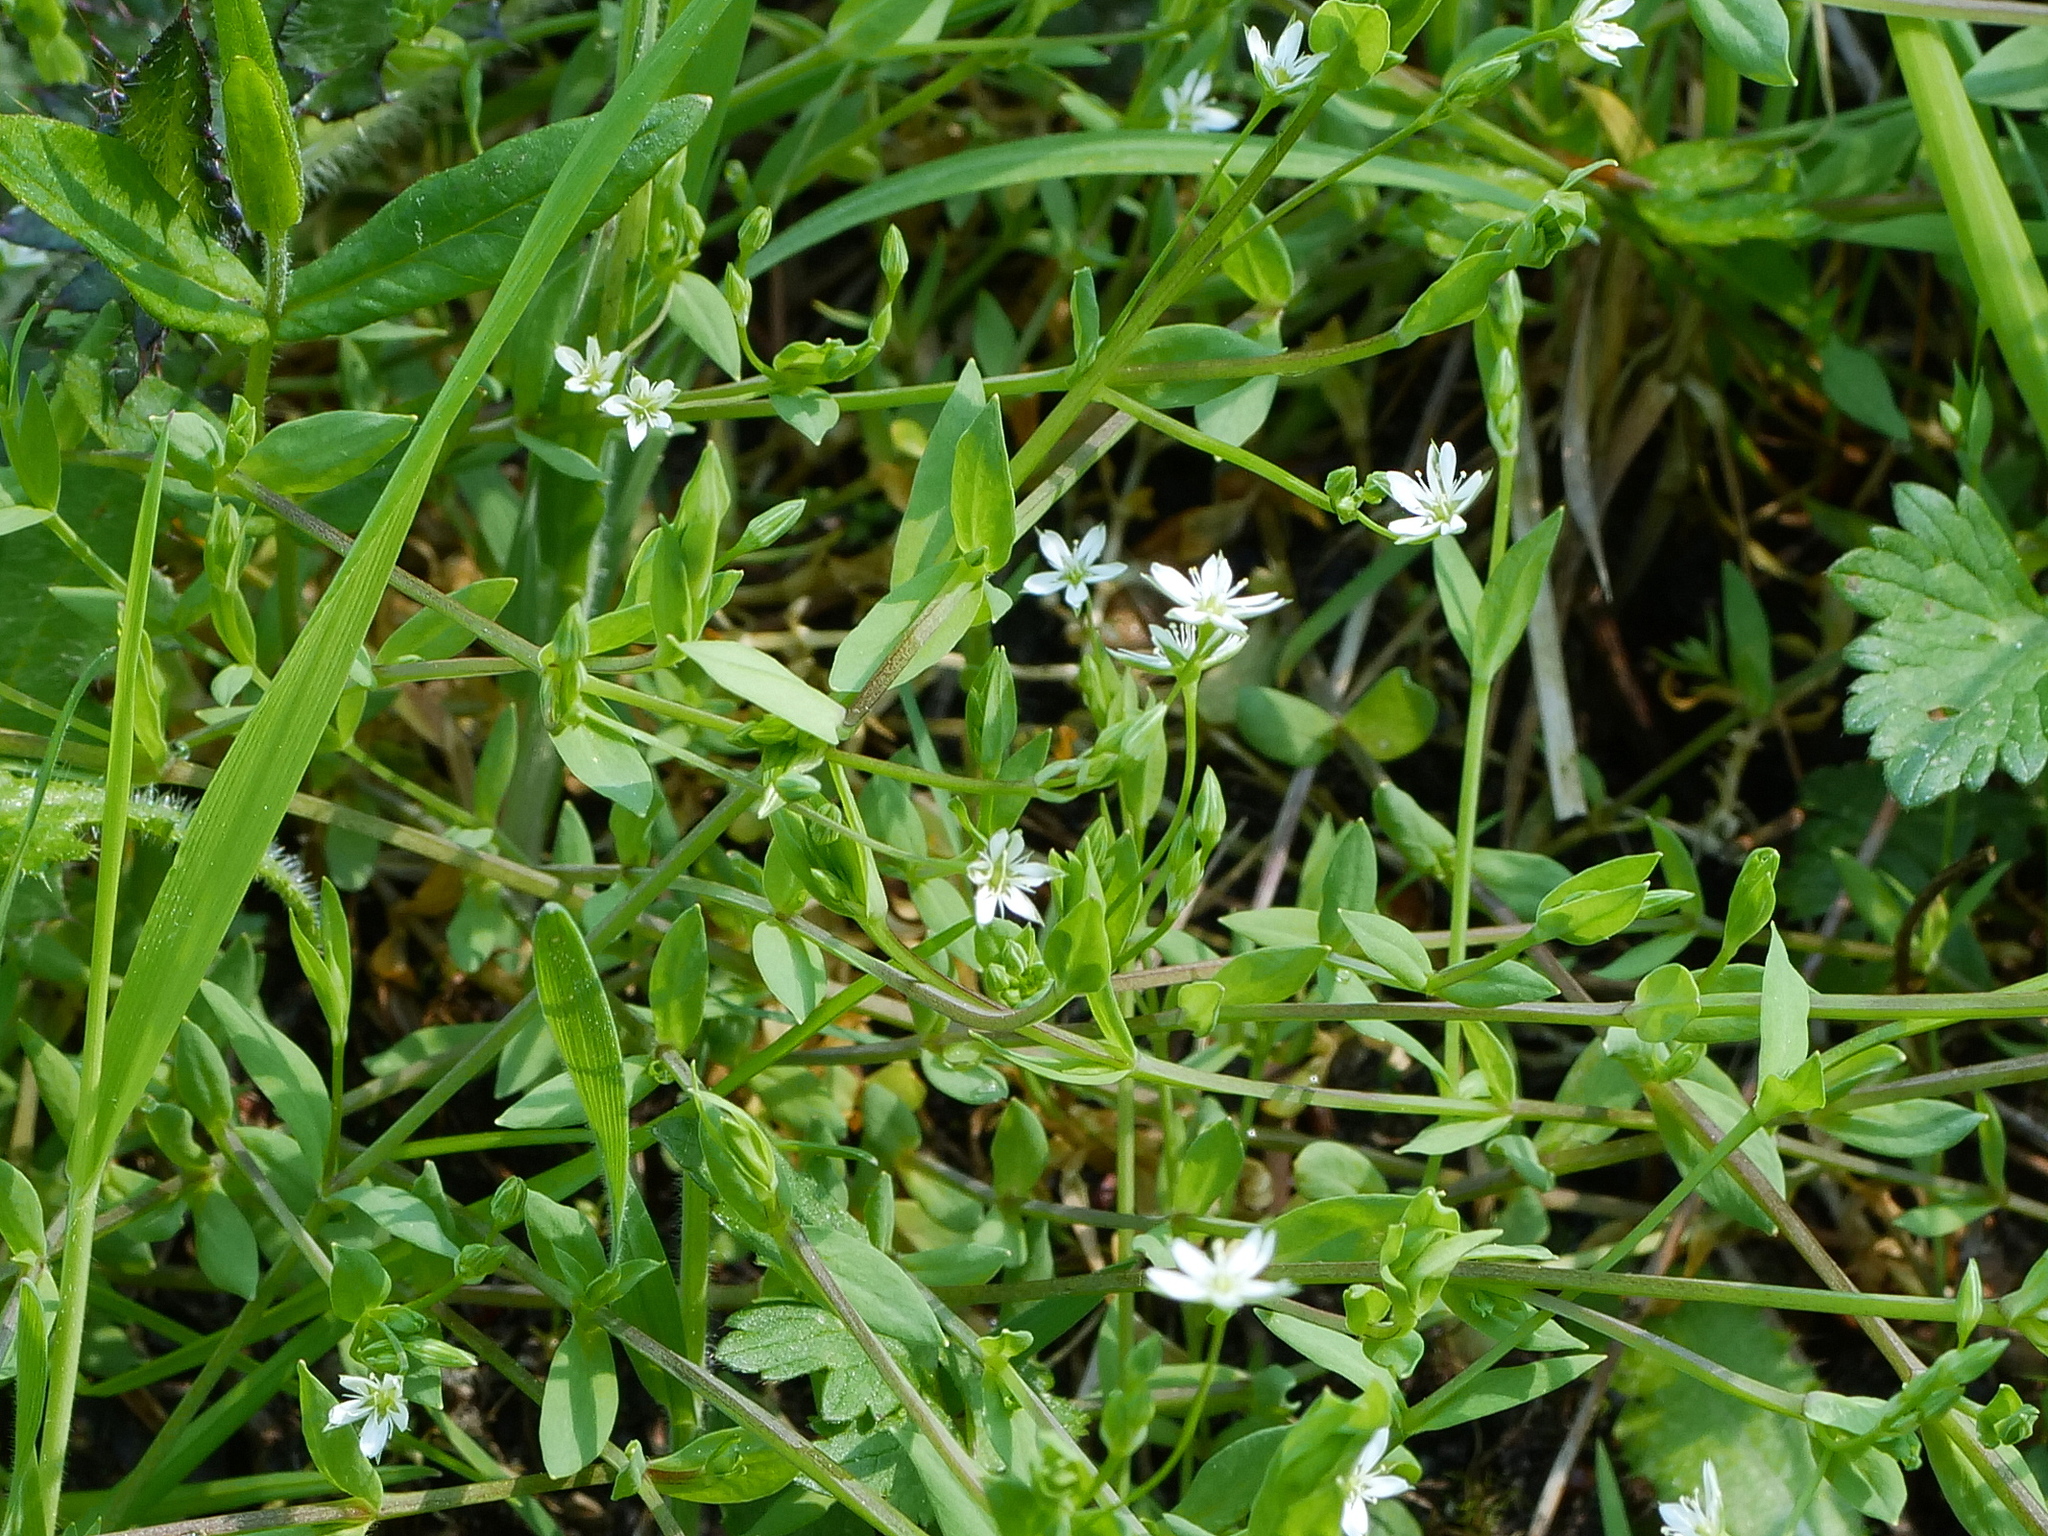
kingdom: Plantae
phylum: Tracheophyta
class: Magnoliopsida
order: Caryophyllales
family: Caryophyllaceae
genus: Stellaria
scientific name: Stellaria alsine
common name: Bog stitchwort
